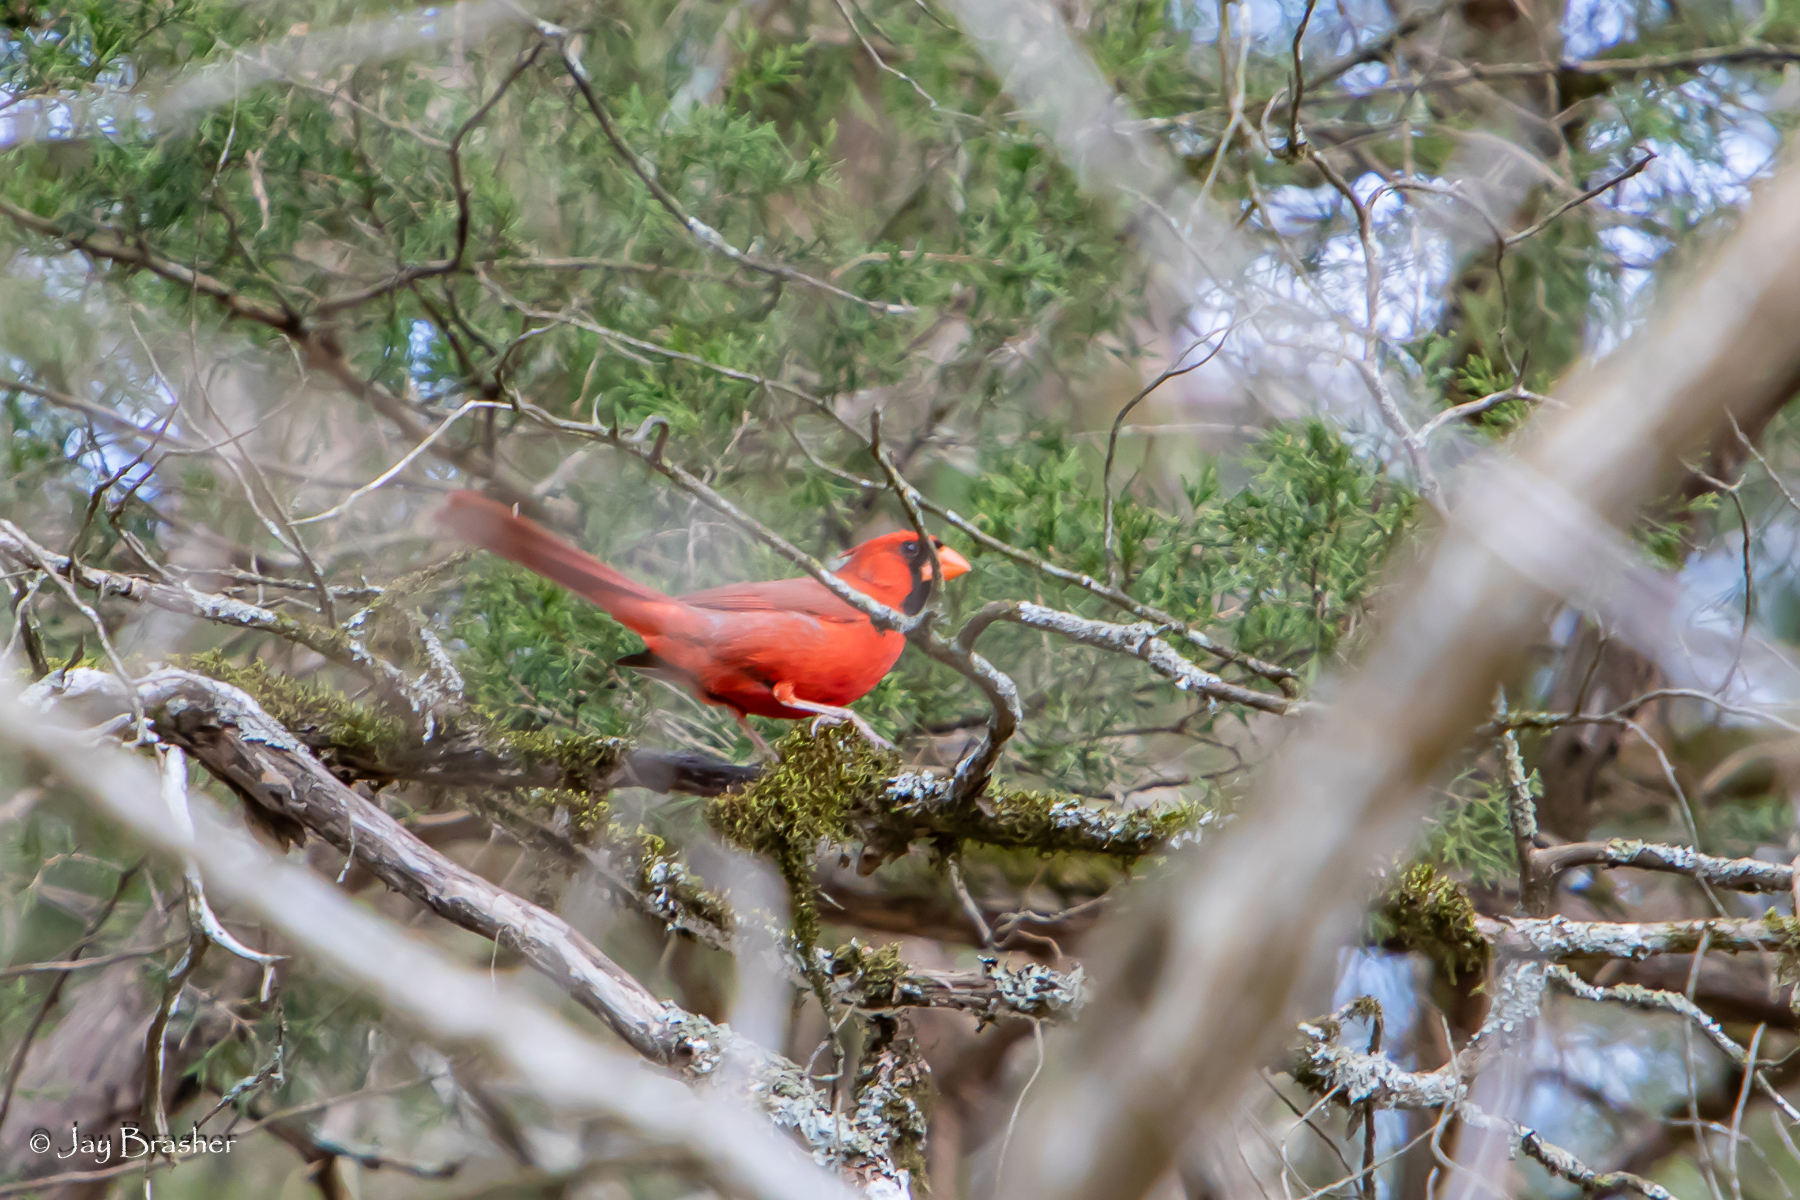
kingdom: Animalia
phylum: Chordata
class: Aves
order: Passeriformes
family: Cardinalidae
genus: Cardinalis
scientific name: Cardinalis cardinalis
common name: Northern cardinal
